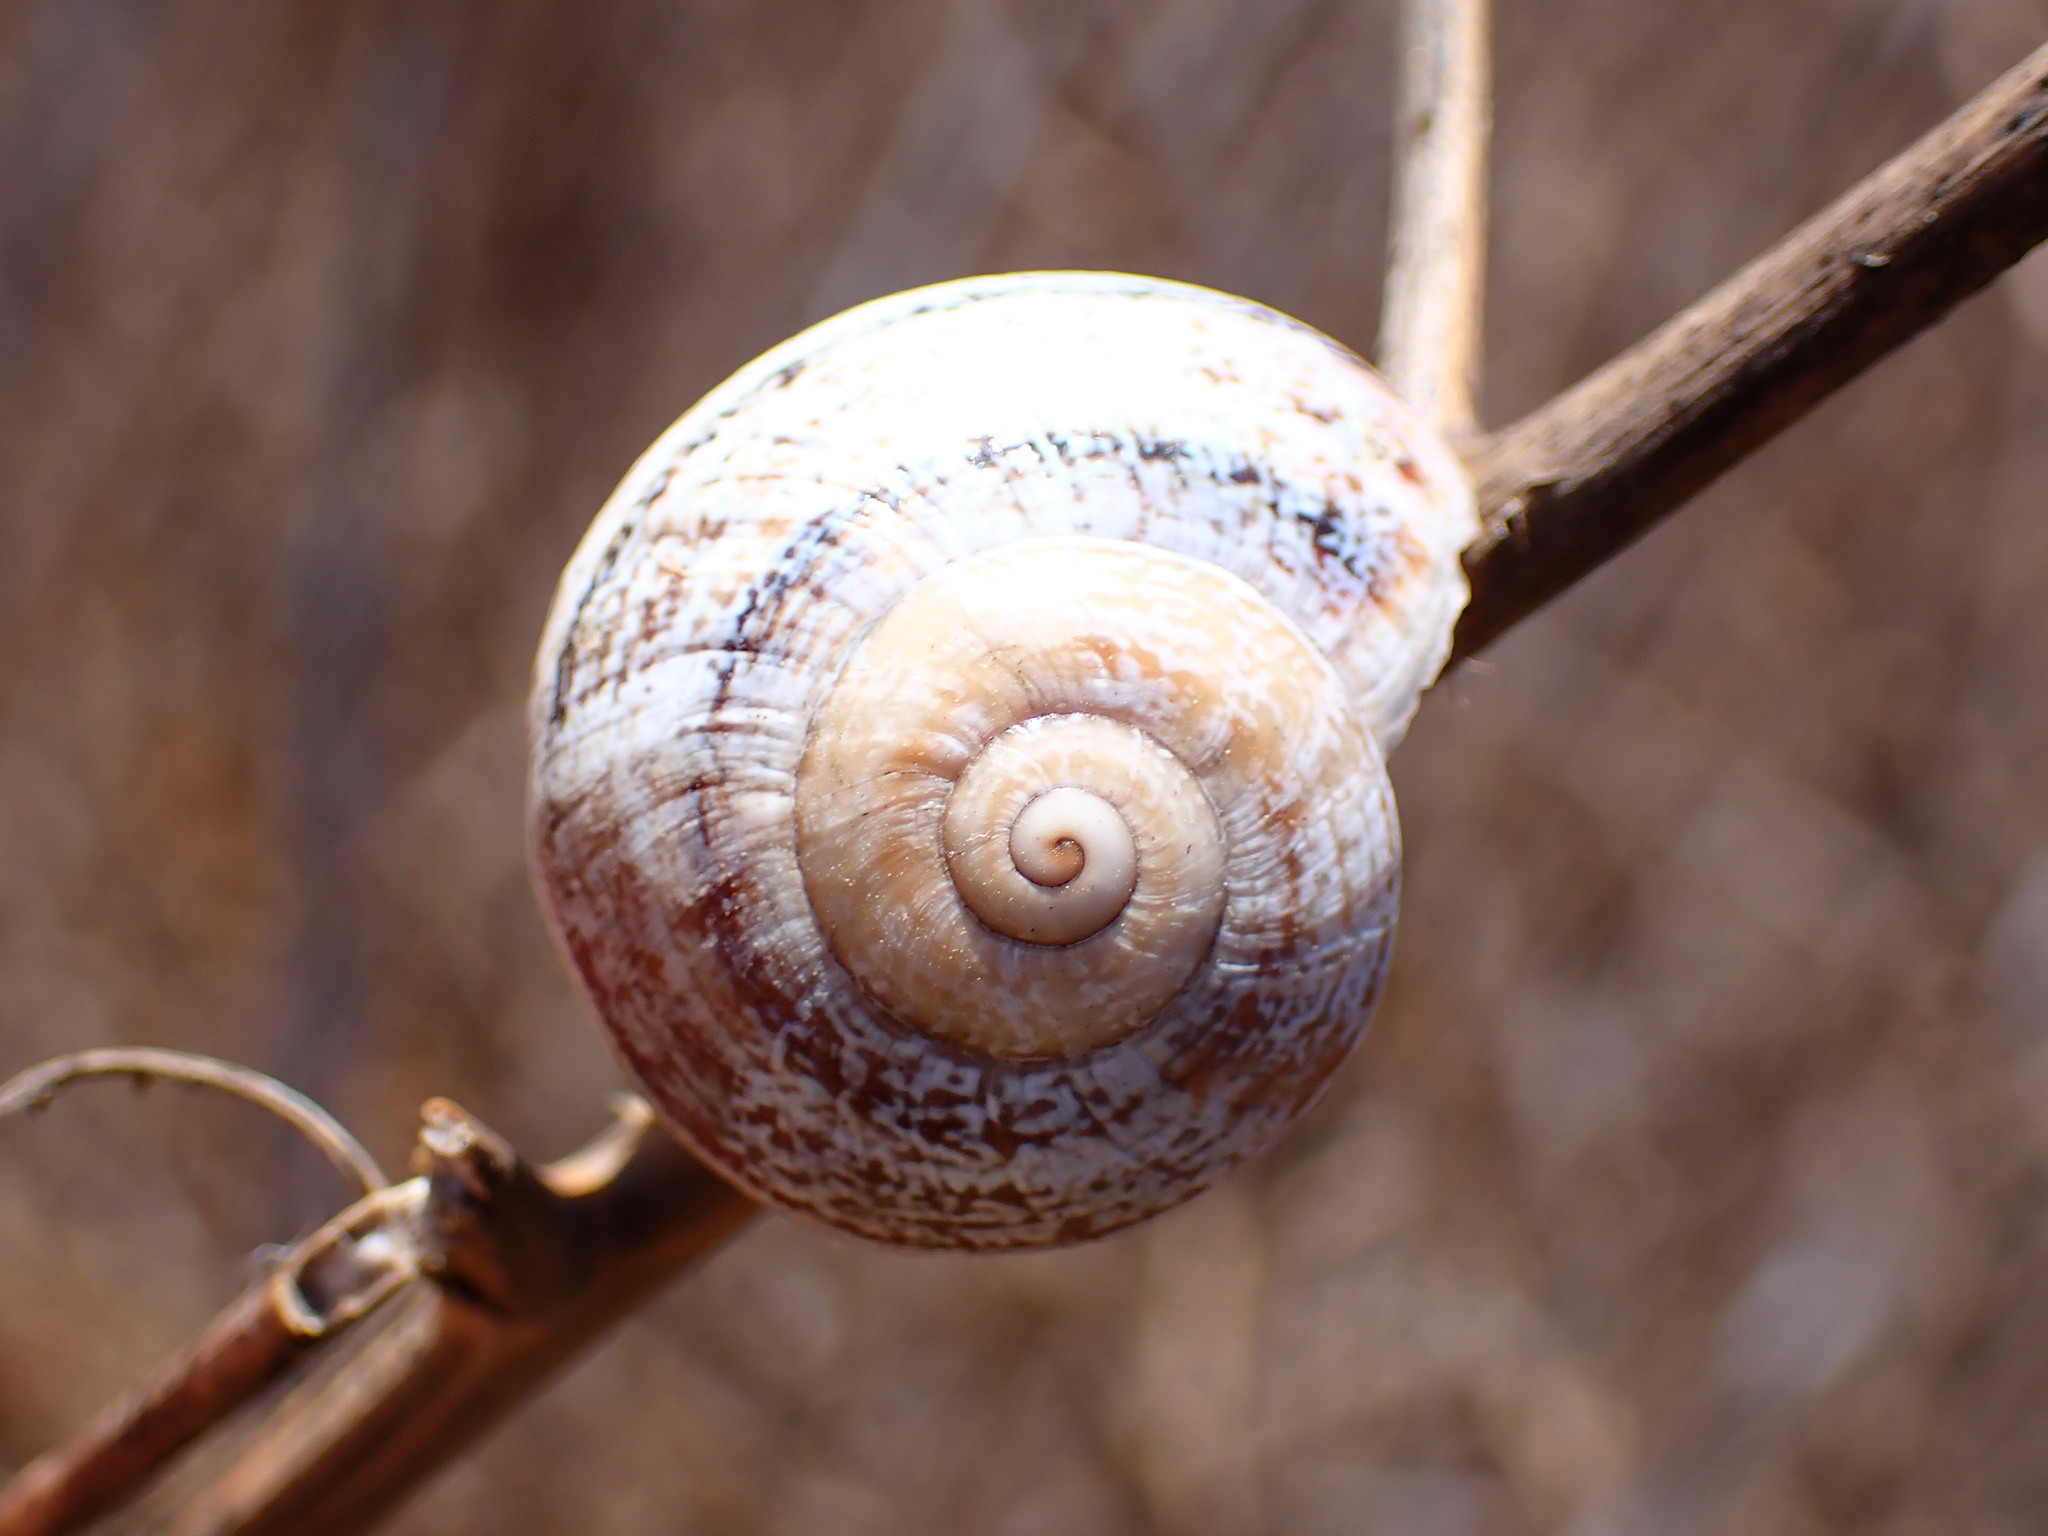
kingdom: Animalia
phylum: Mollusca
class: Gastropoda
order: Stylommatophora
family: Helicidae
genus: Otala
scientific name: Otala lactea
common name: Milk snail
